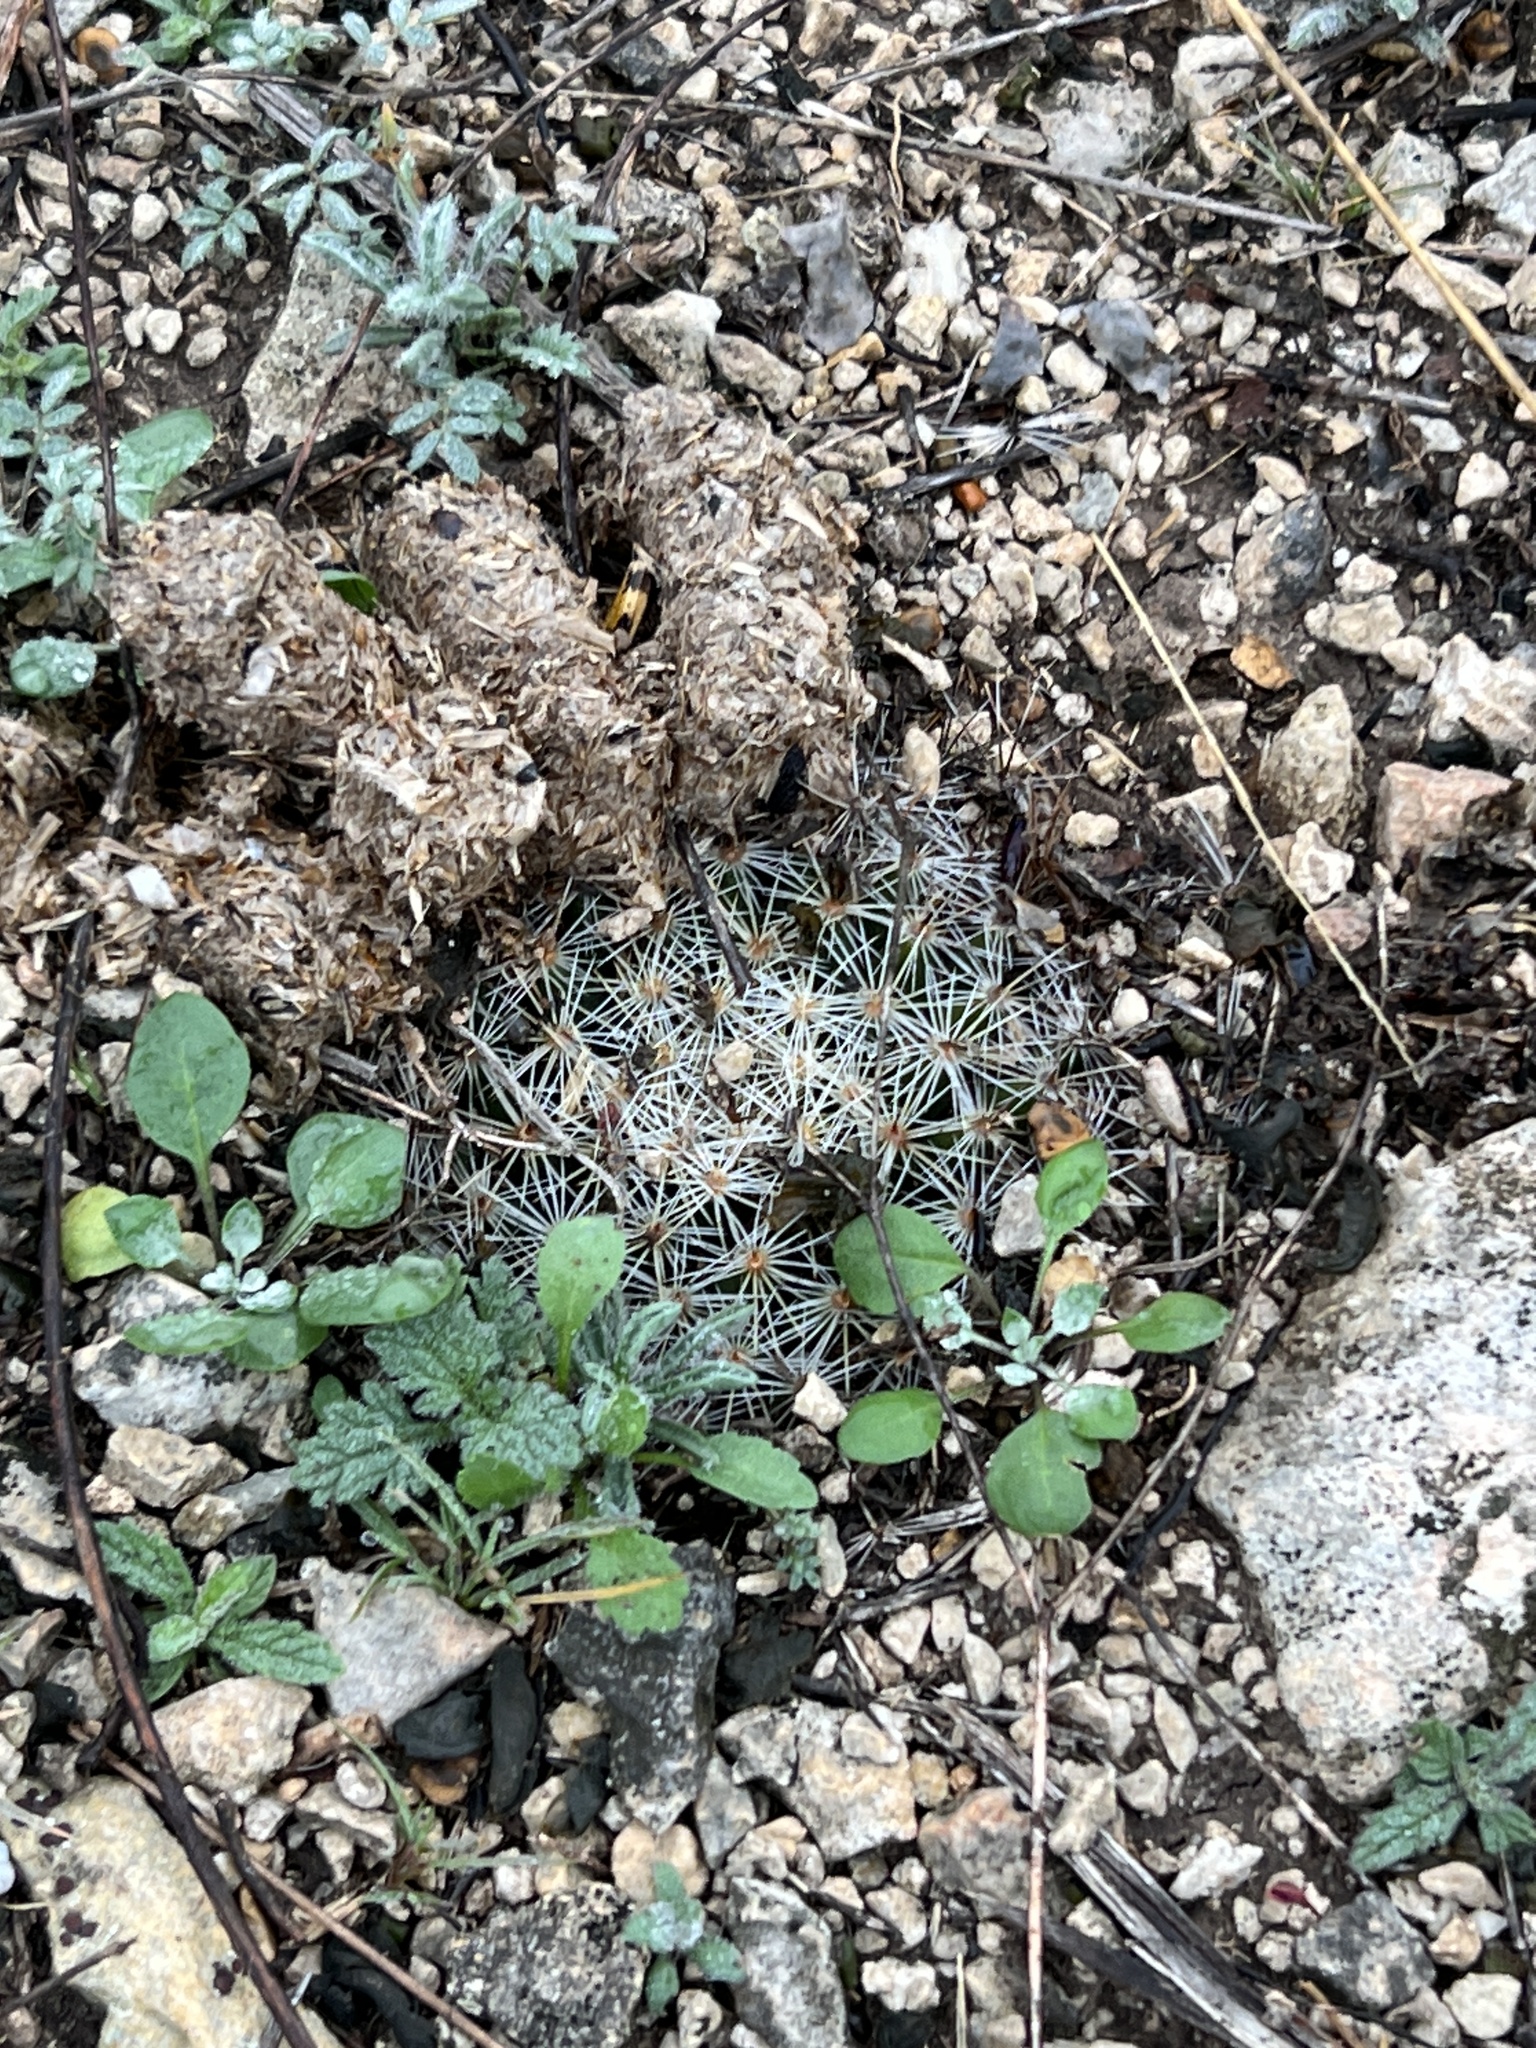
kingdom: Plantae
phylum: Tracheophyta
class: Magnoliopsida
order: Caryophyllales
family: Cactaceae
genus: Mammillaria
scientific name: Mammillaria heyderi
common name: Little nipple cactus
